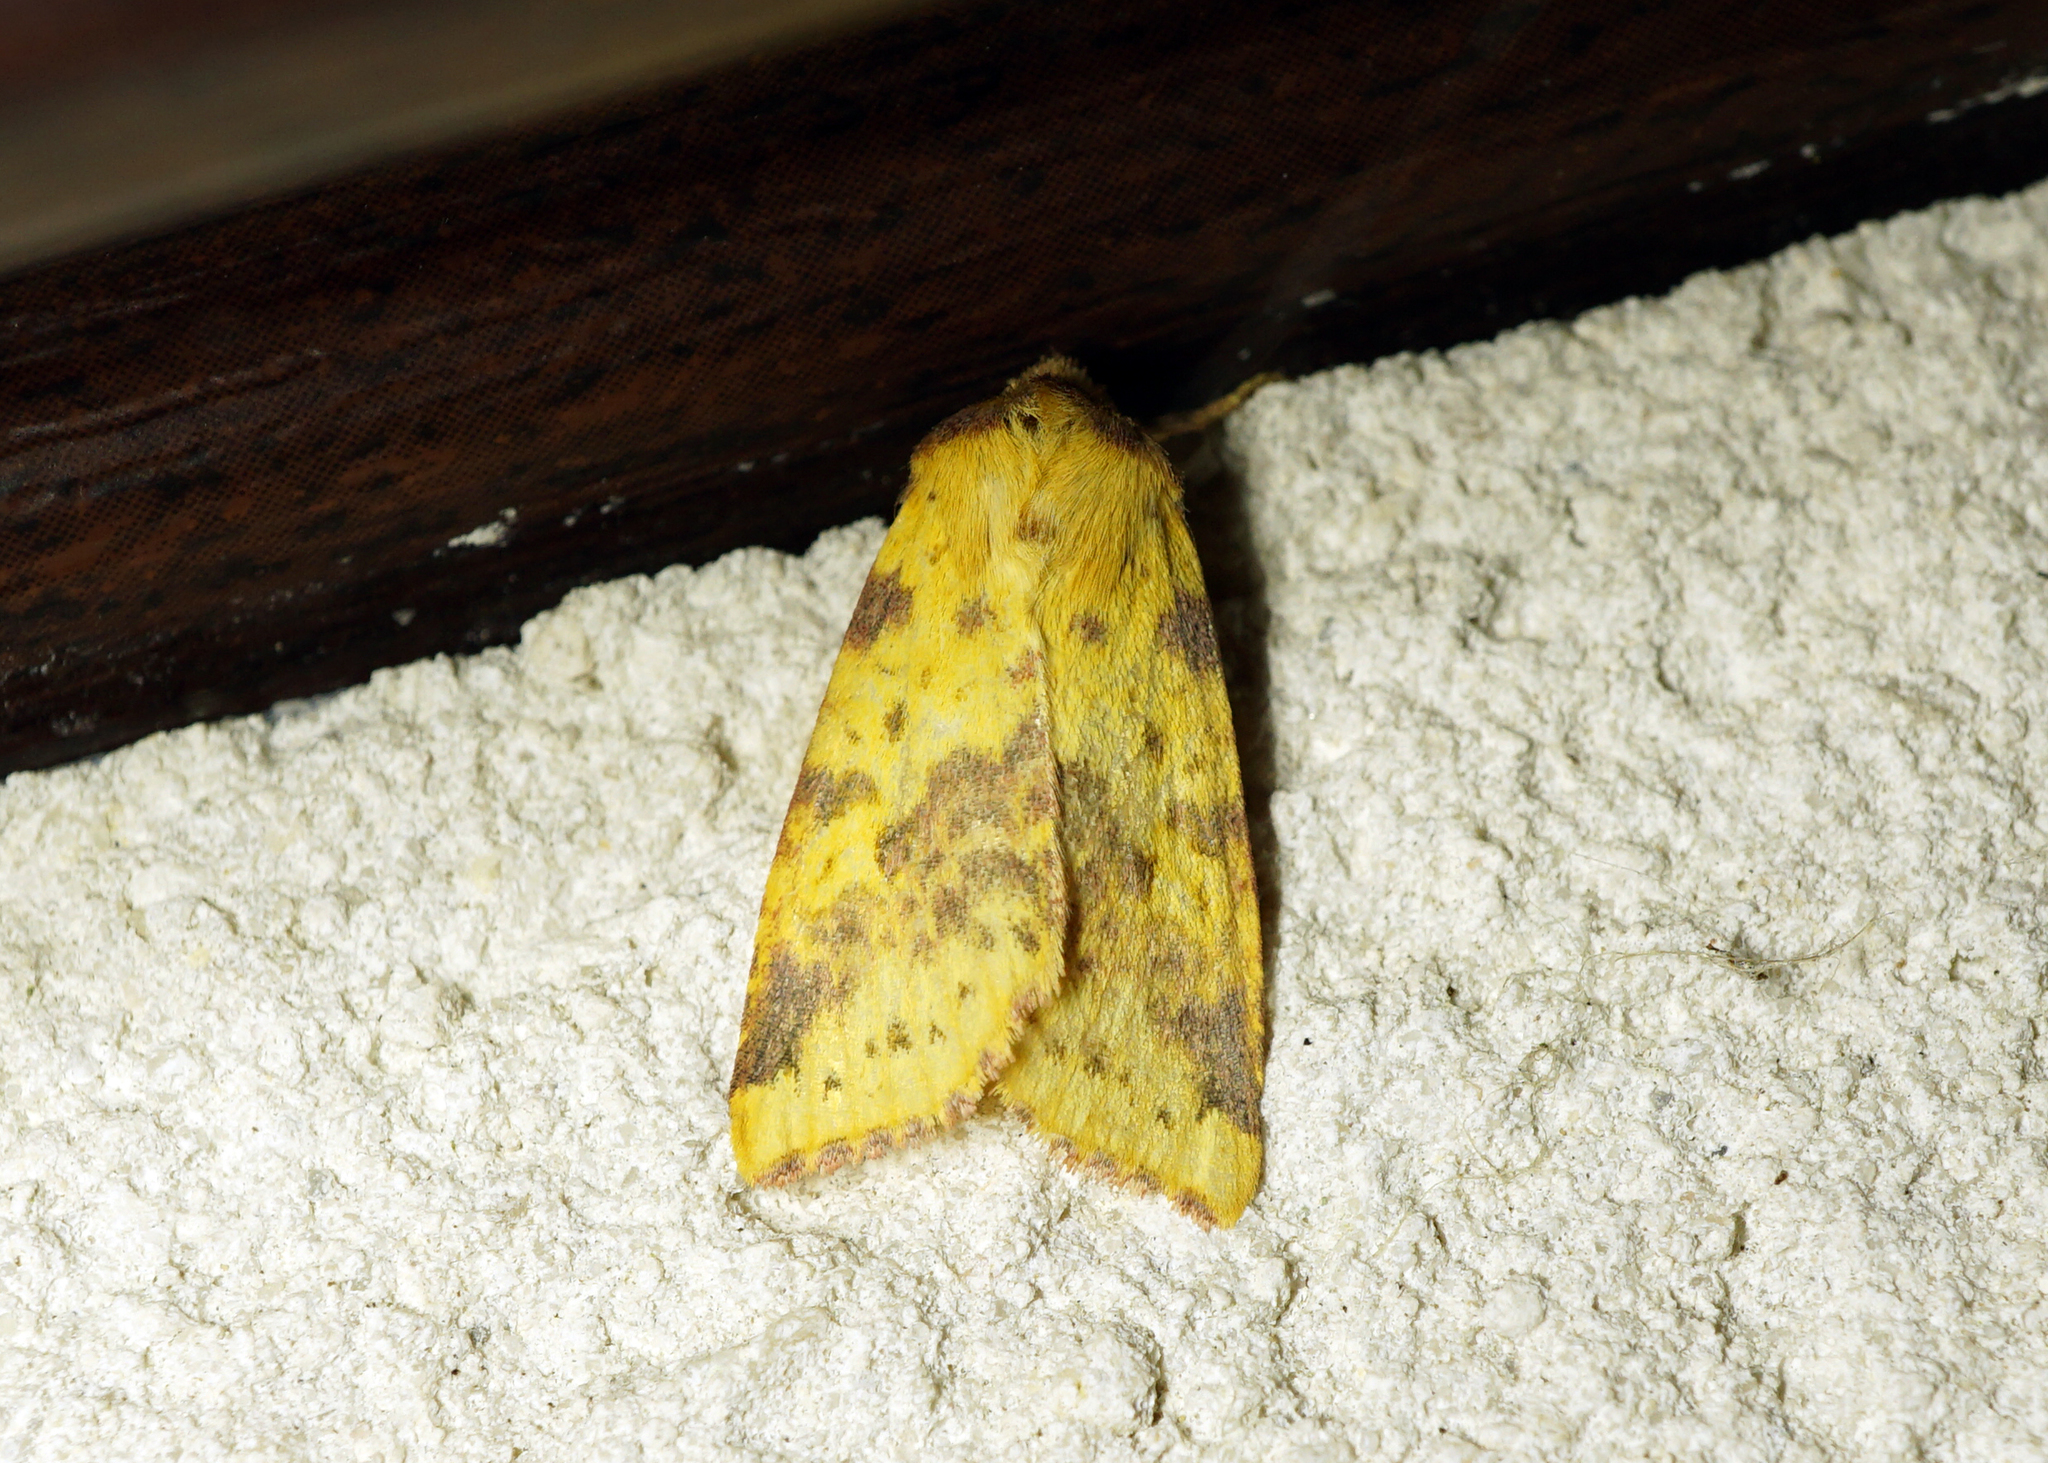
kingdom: Animalia
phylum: Arthropoda
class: Insecta
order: Lepidoptera
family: Noctuidae
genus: Xanthia
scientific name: Xanthia togata
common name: Pink-barred sallow
